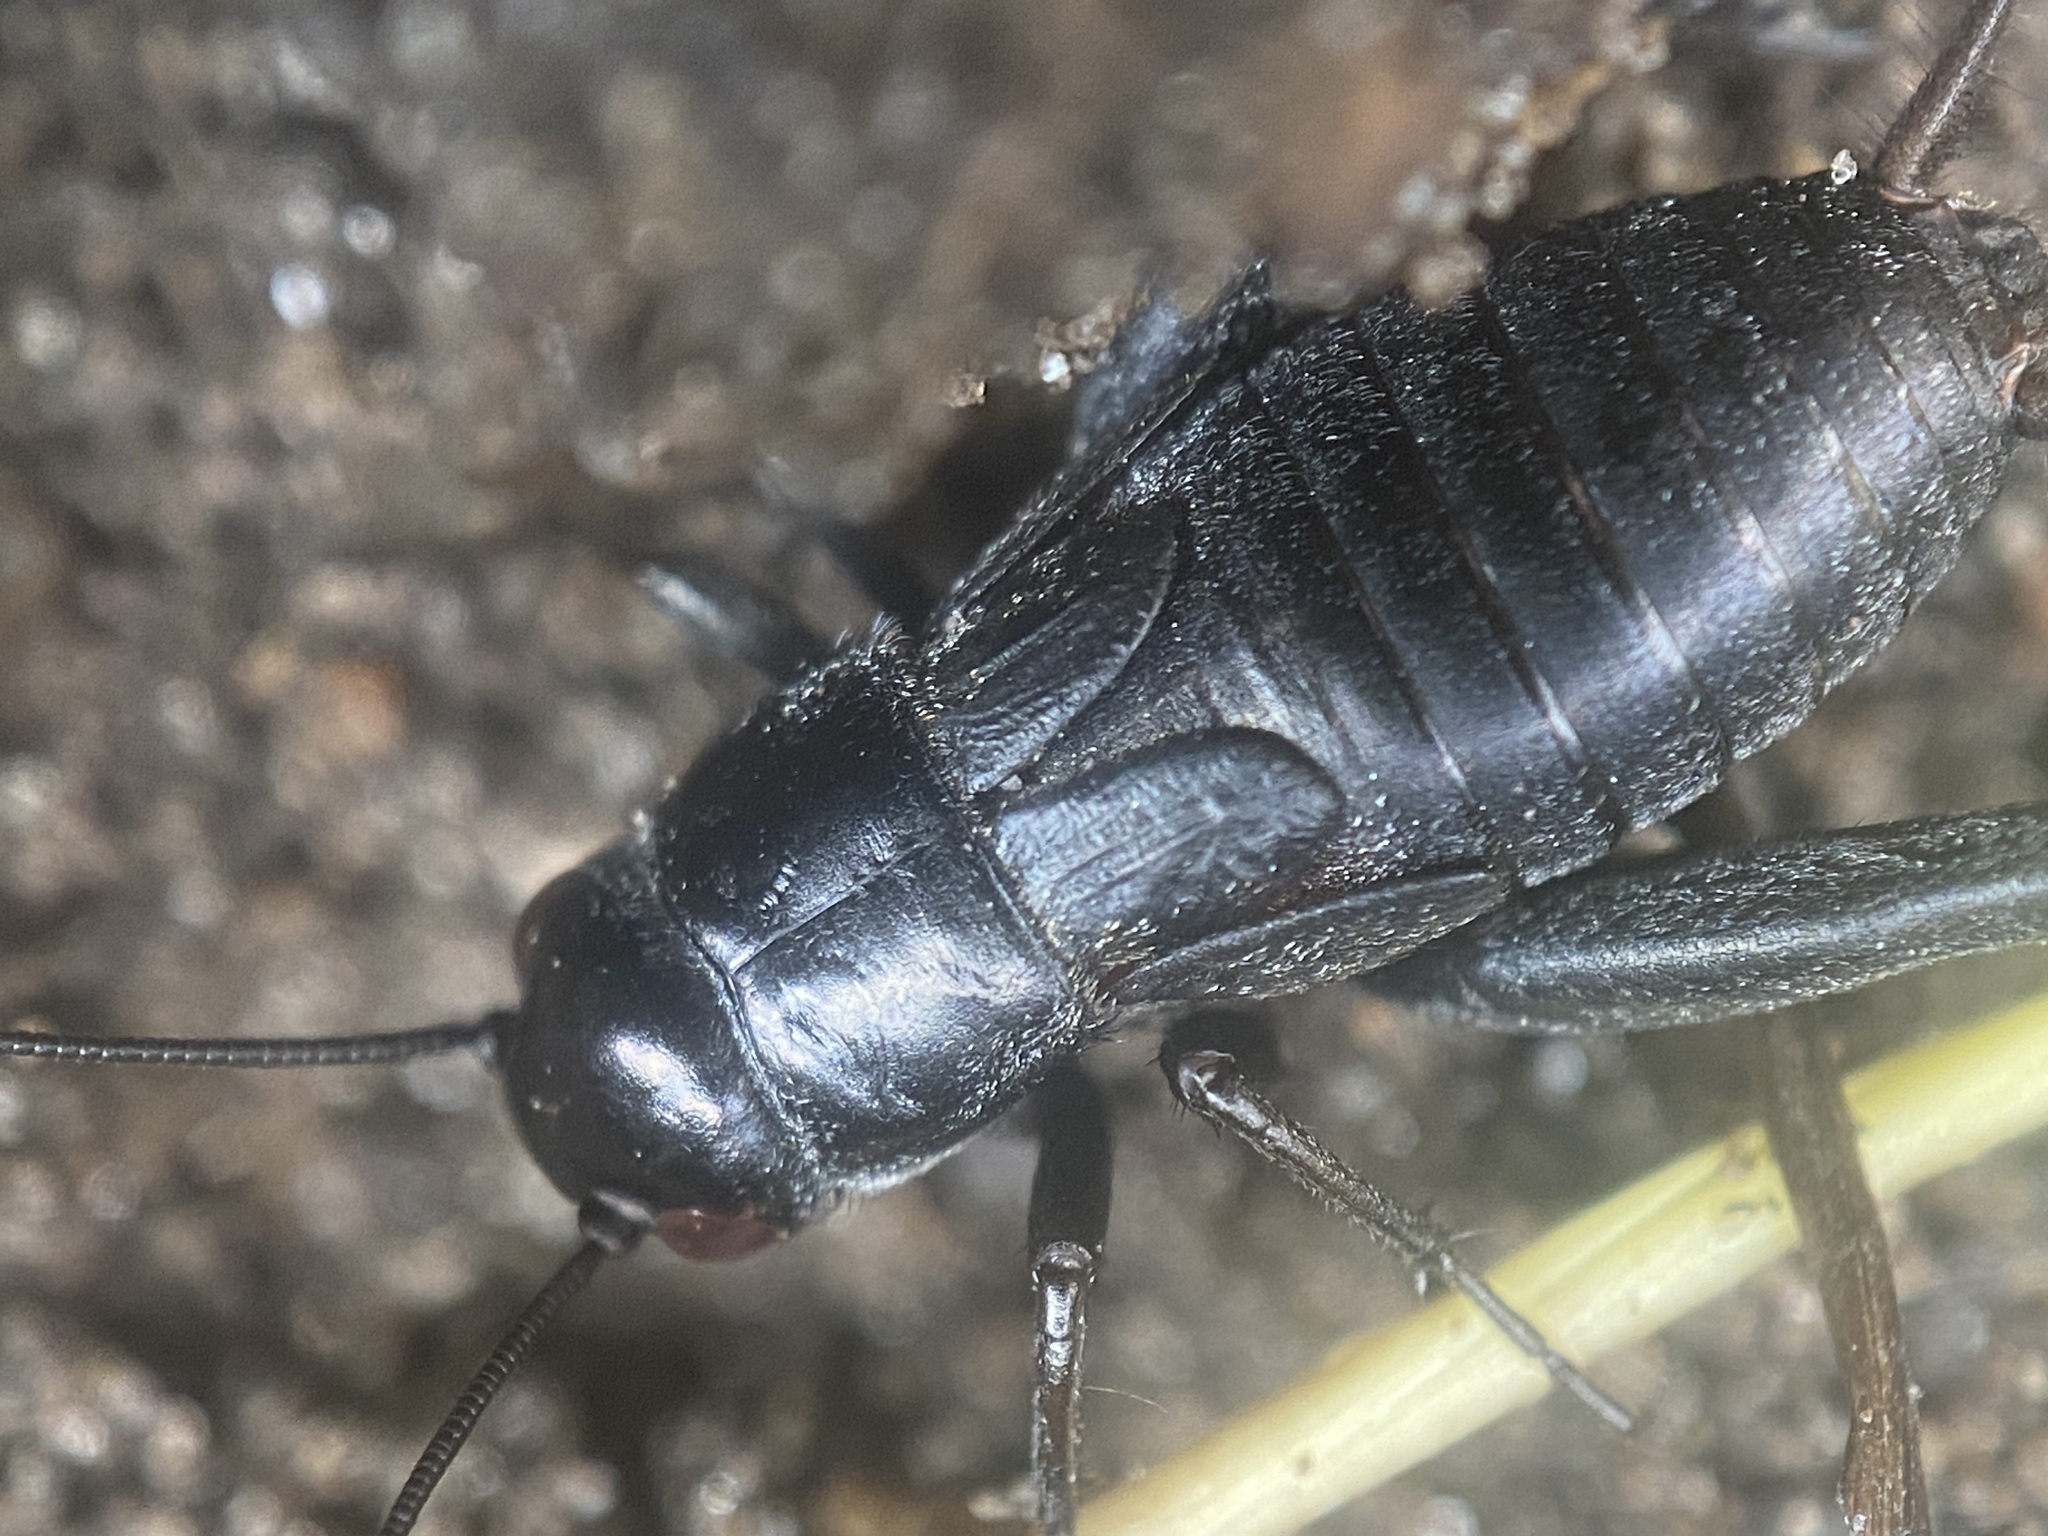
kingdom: Animalia
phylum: Arthropoda
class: Insecta
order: Orthoptera
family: Gryllidae
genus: Gryllus
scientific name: Gryllus veletis
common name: Spring field cricket
